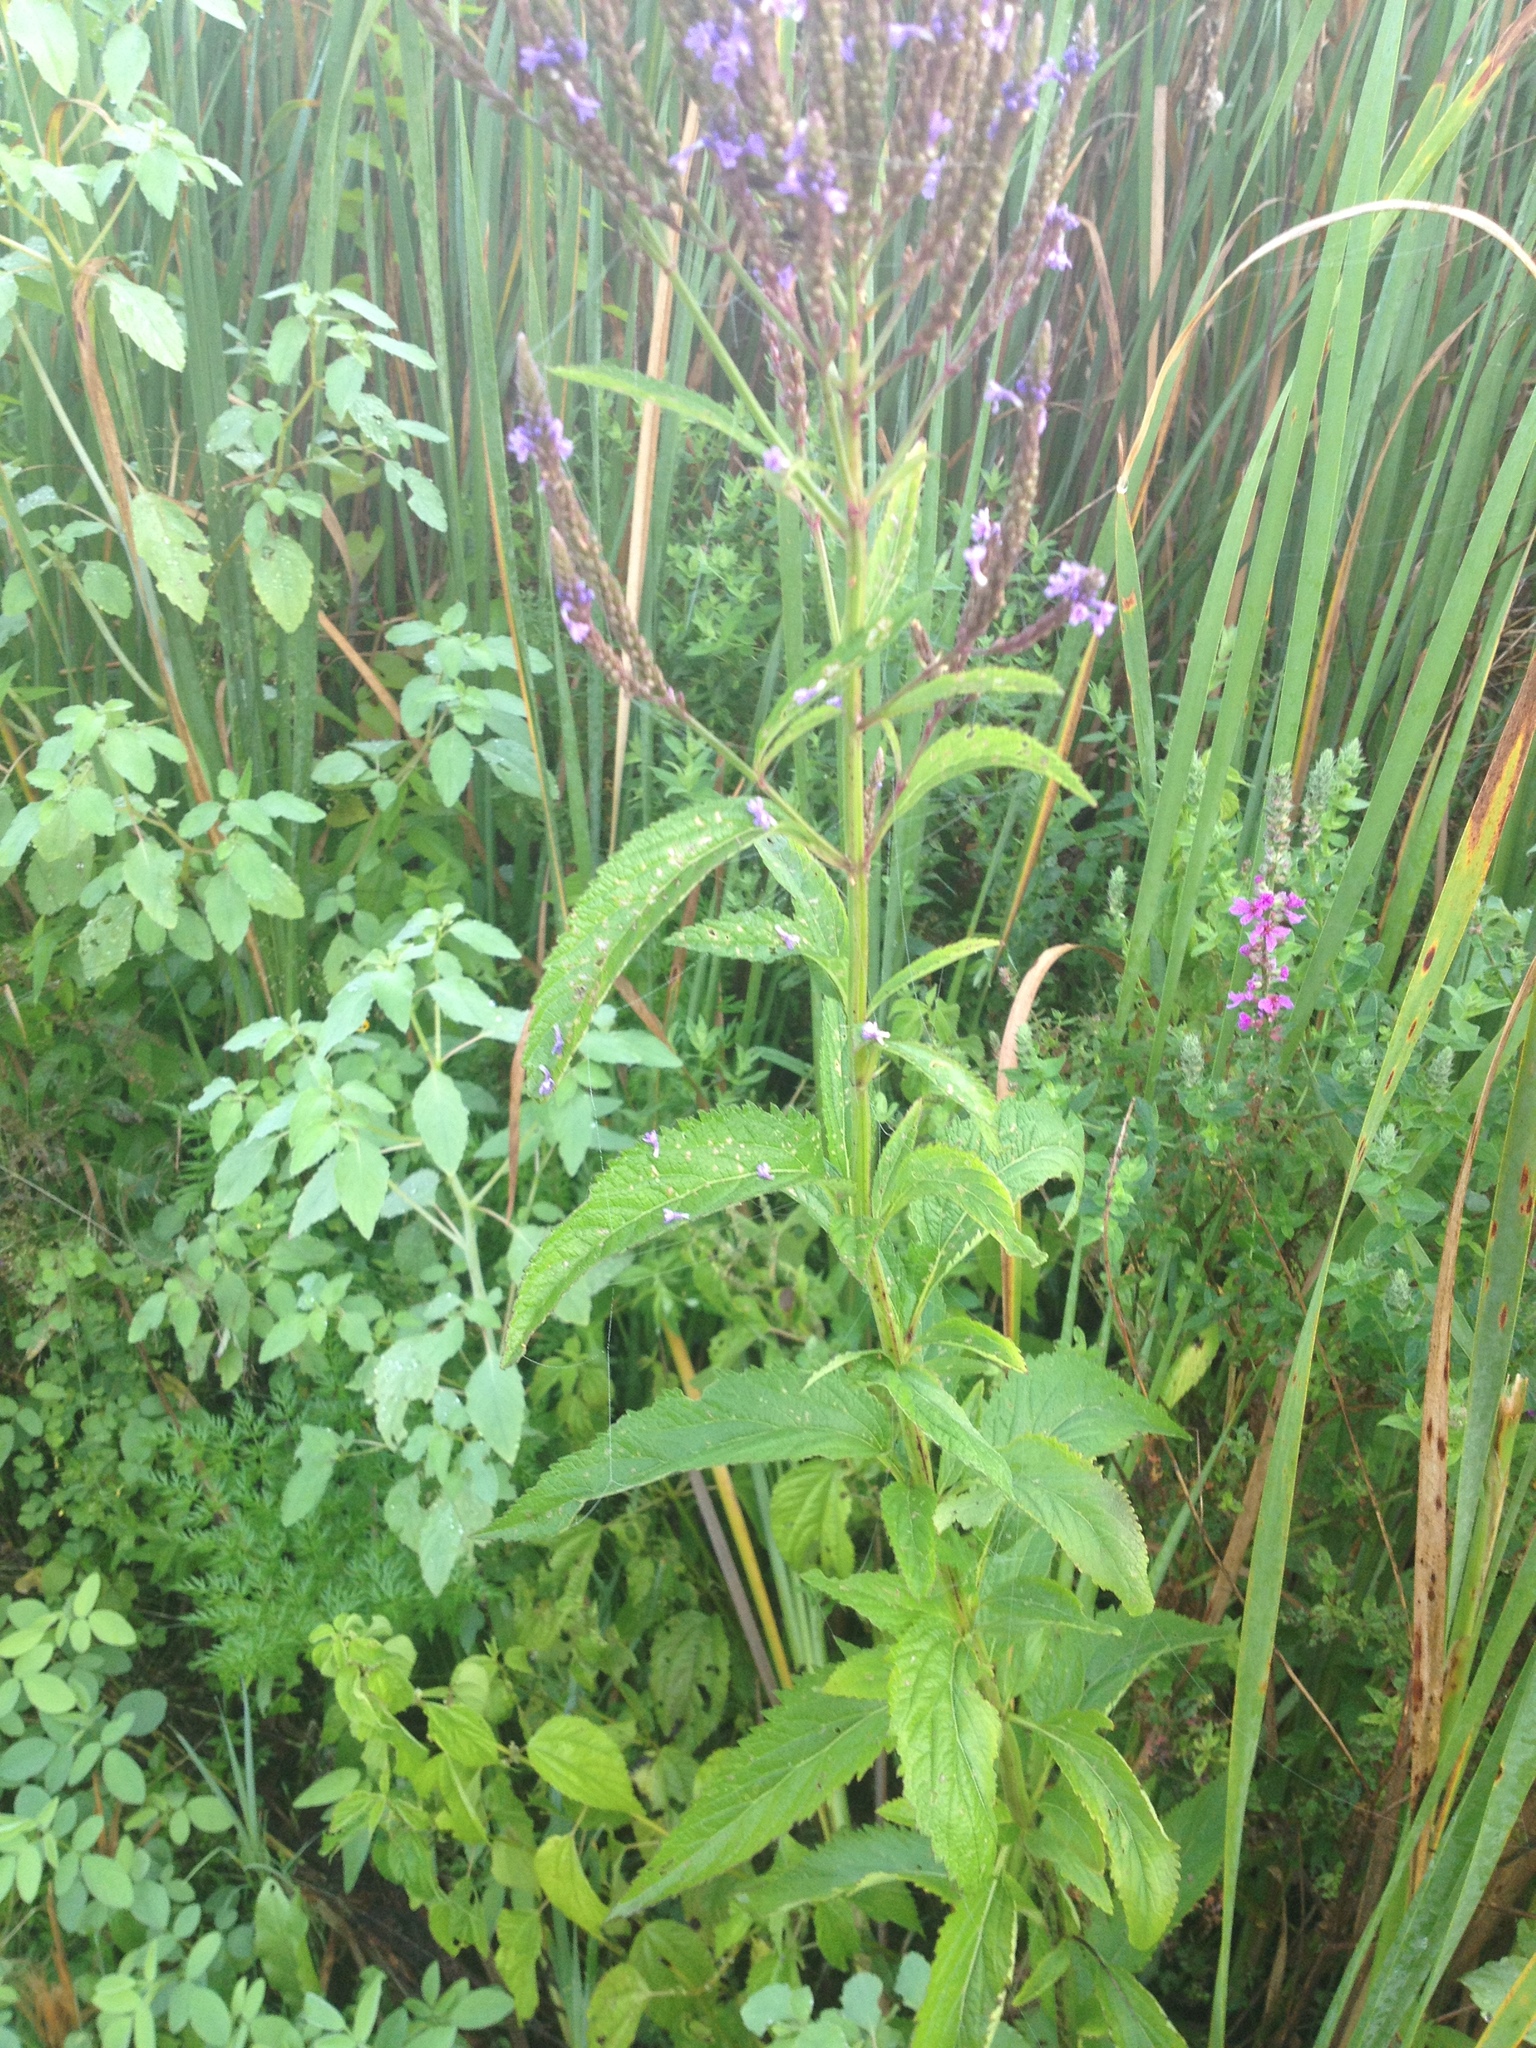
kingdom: Plantae
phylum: Tracheophyta
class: Magnoliopsida
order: Lamiales
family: Verbenaceae
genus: Verbena
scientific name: Verbena hastata
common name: American blue vervain
